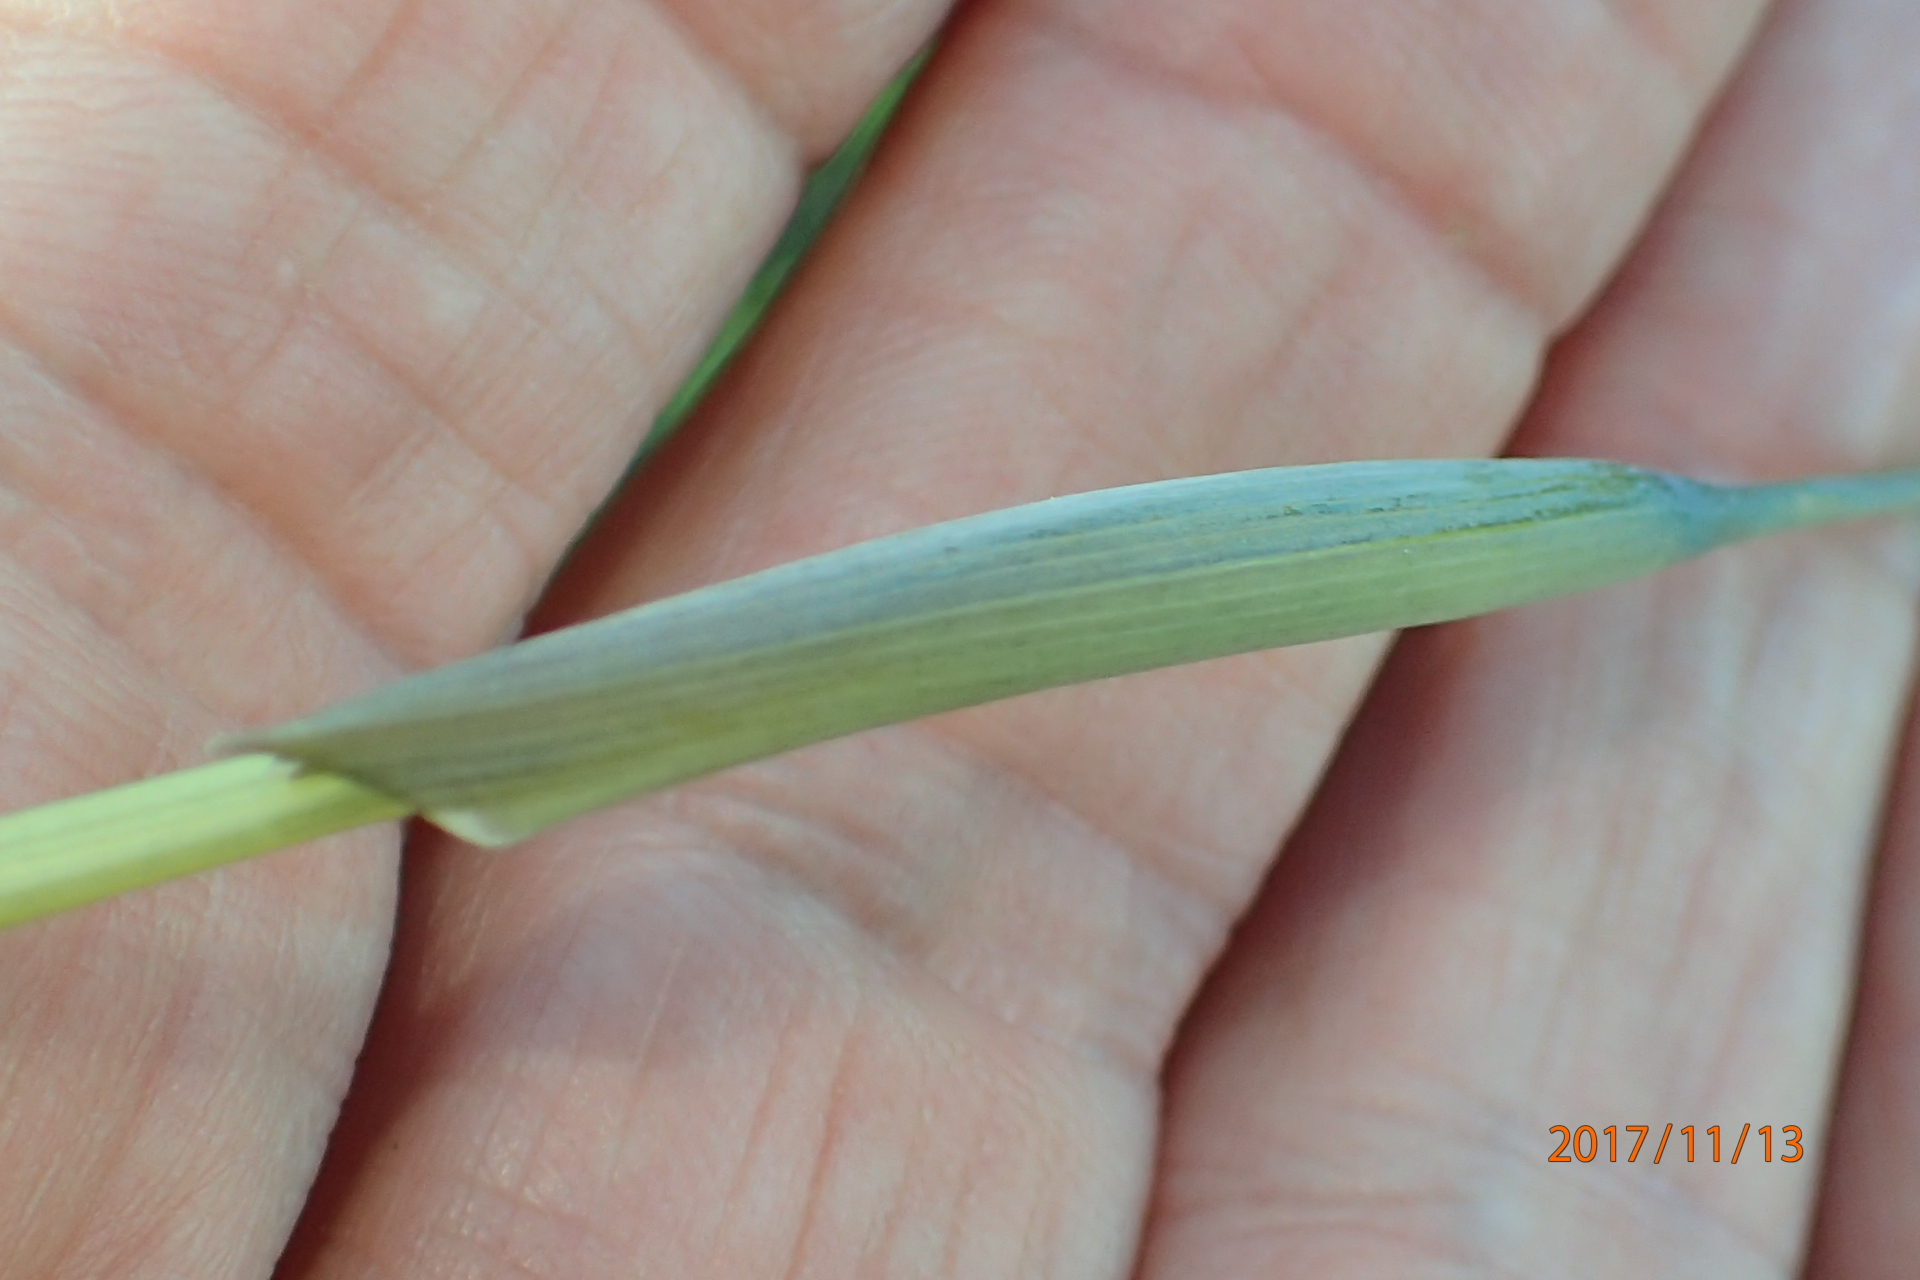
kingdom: Plantae
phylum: Tracheophyta
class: Liliopsida
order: Asparagales
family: Iridaceae
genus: Gladiolus
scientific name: Gladiolus longicollis
